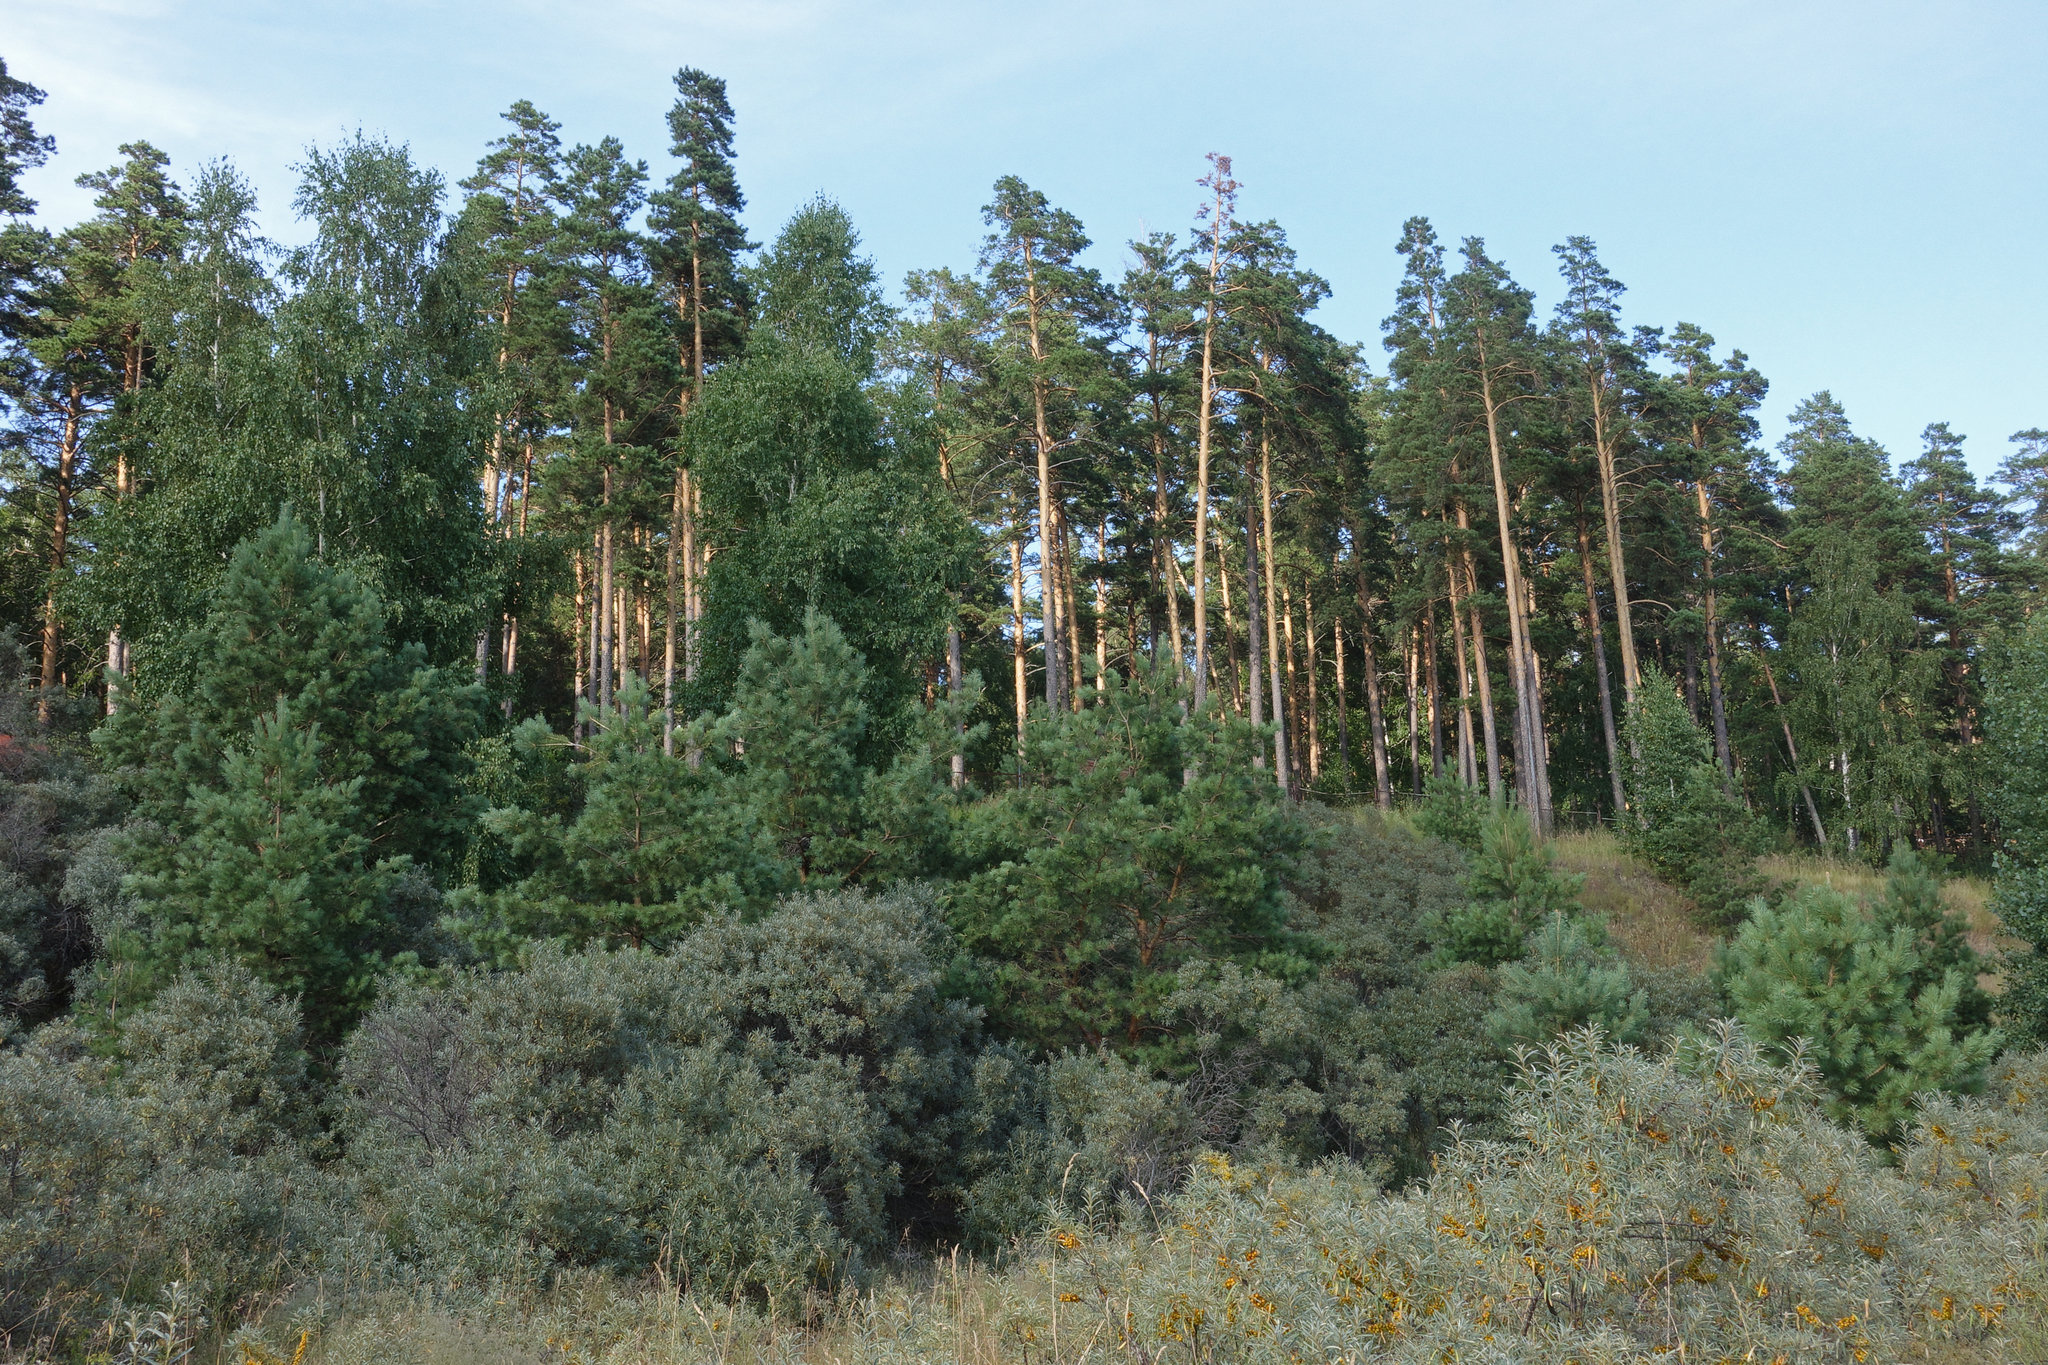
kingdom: Plantae
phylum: Tracheophyta
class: Pinopsida
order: Pinales
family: Pinaceae
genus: Pinus
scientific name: Pinus sylvestris
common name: Scots pine
